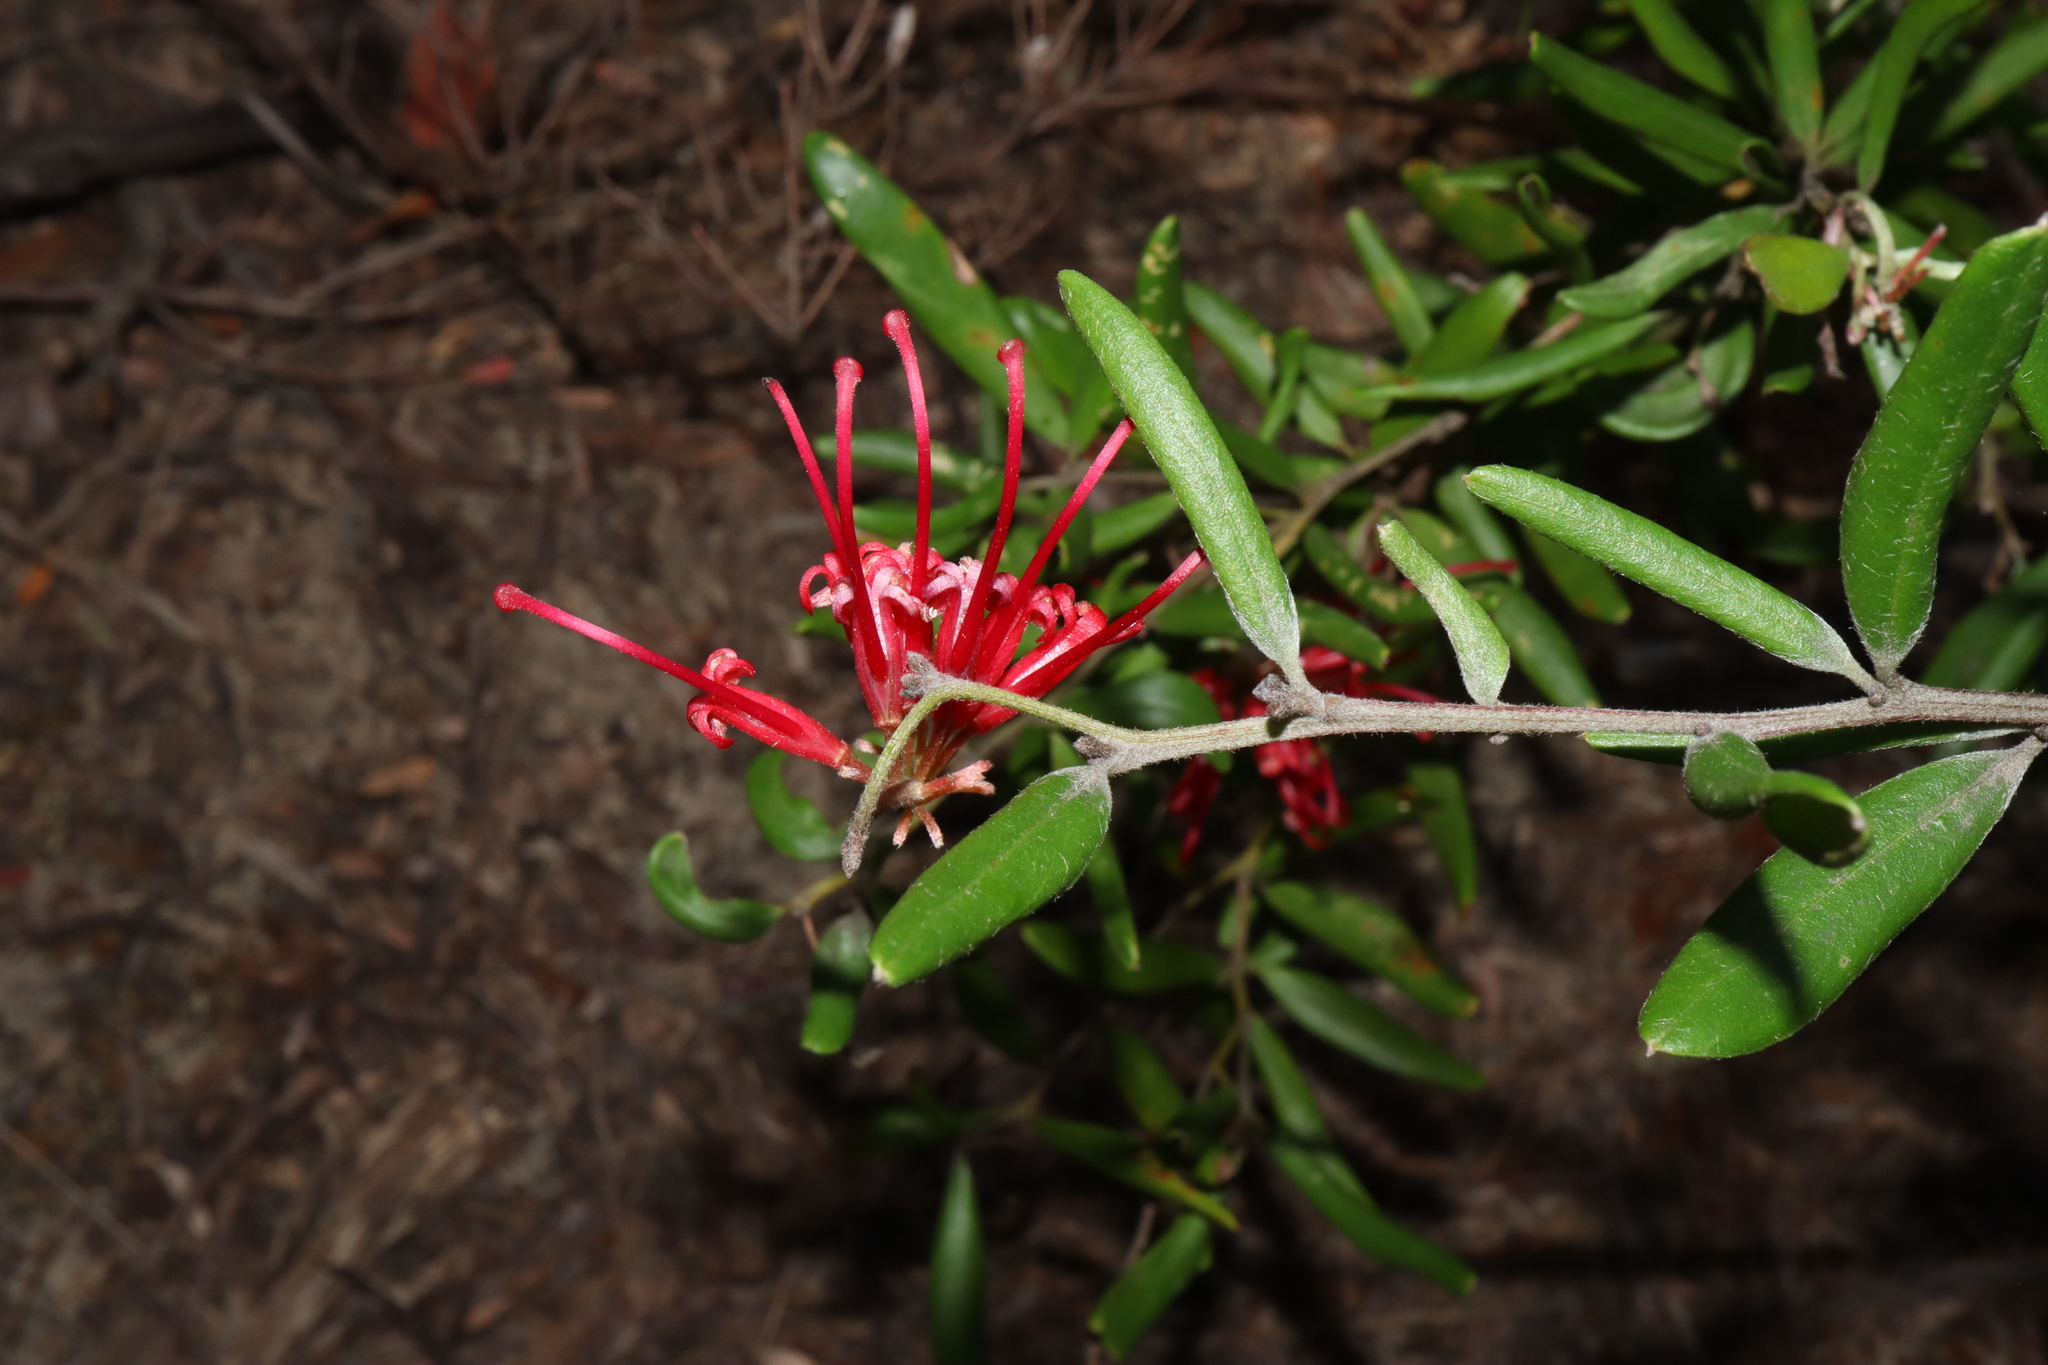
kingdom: Plantae
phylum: Tracheophyta
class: Magnoliopsida
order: Proteales
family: Proteaceae
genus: Grevillea
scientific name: Grevillea speciosa
